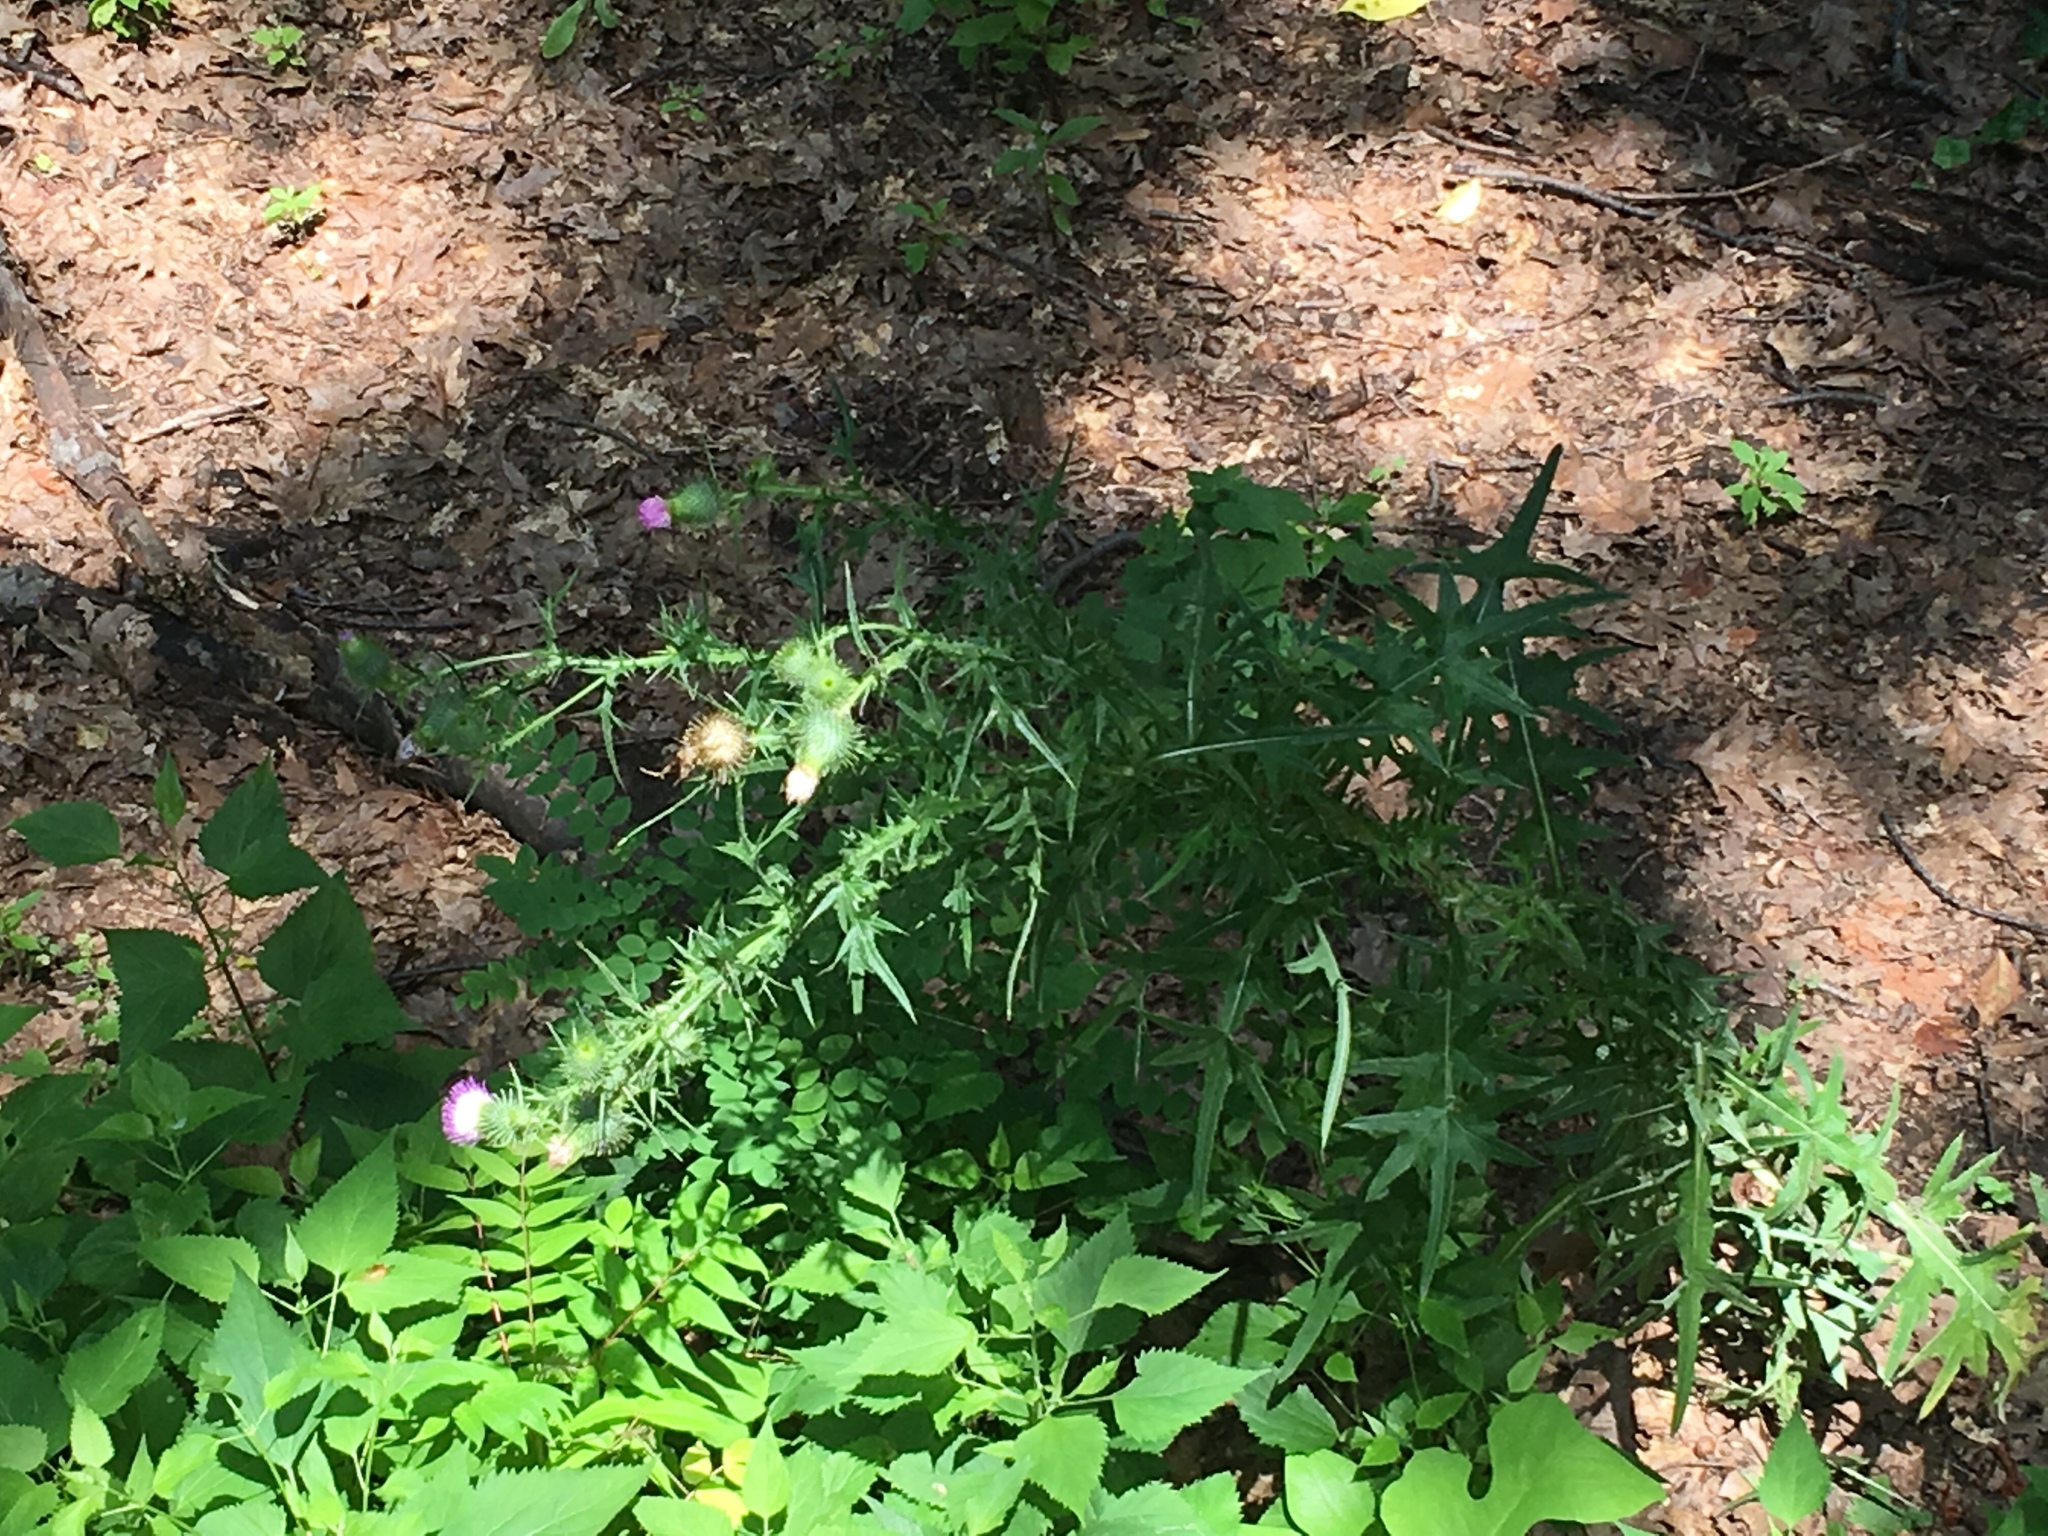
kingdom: Plantae
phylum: Tracheophyta
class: Magnoliopsida
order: Asterales
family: Asteraceae
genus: Cirsium
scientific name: Cirsium vulgare
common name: Bull thistle
